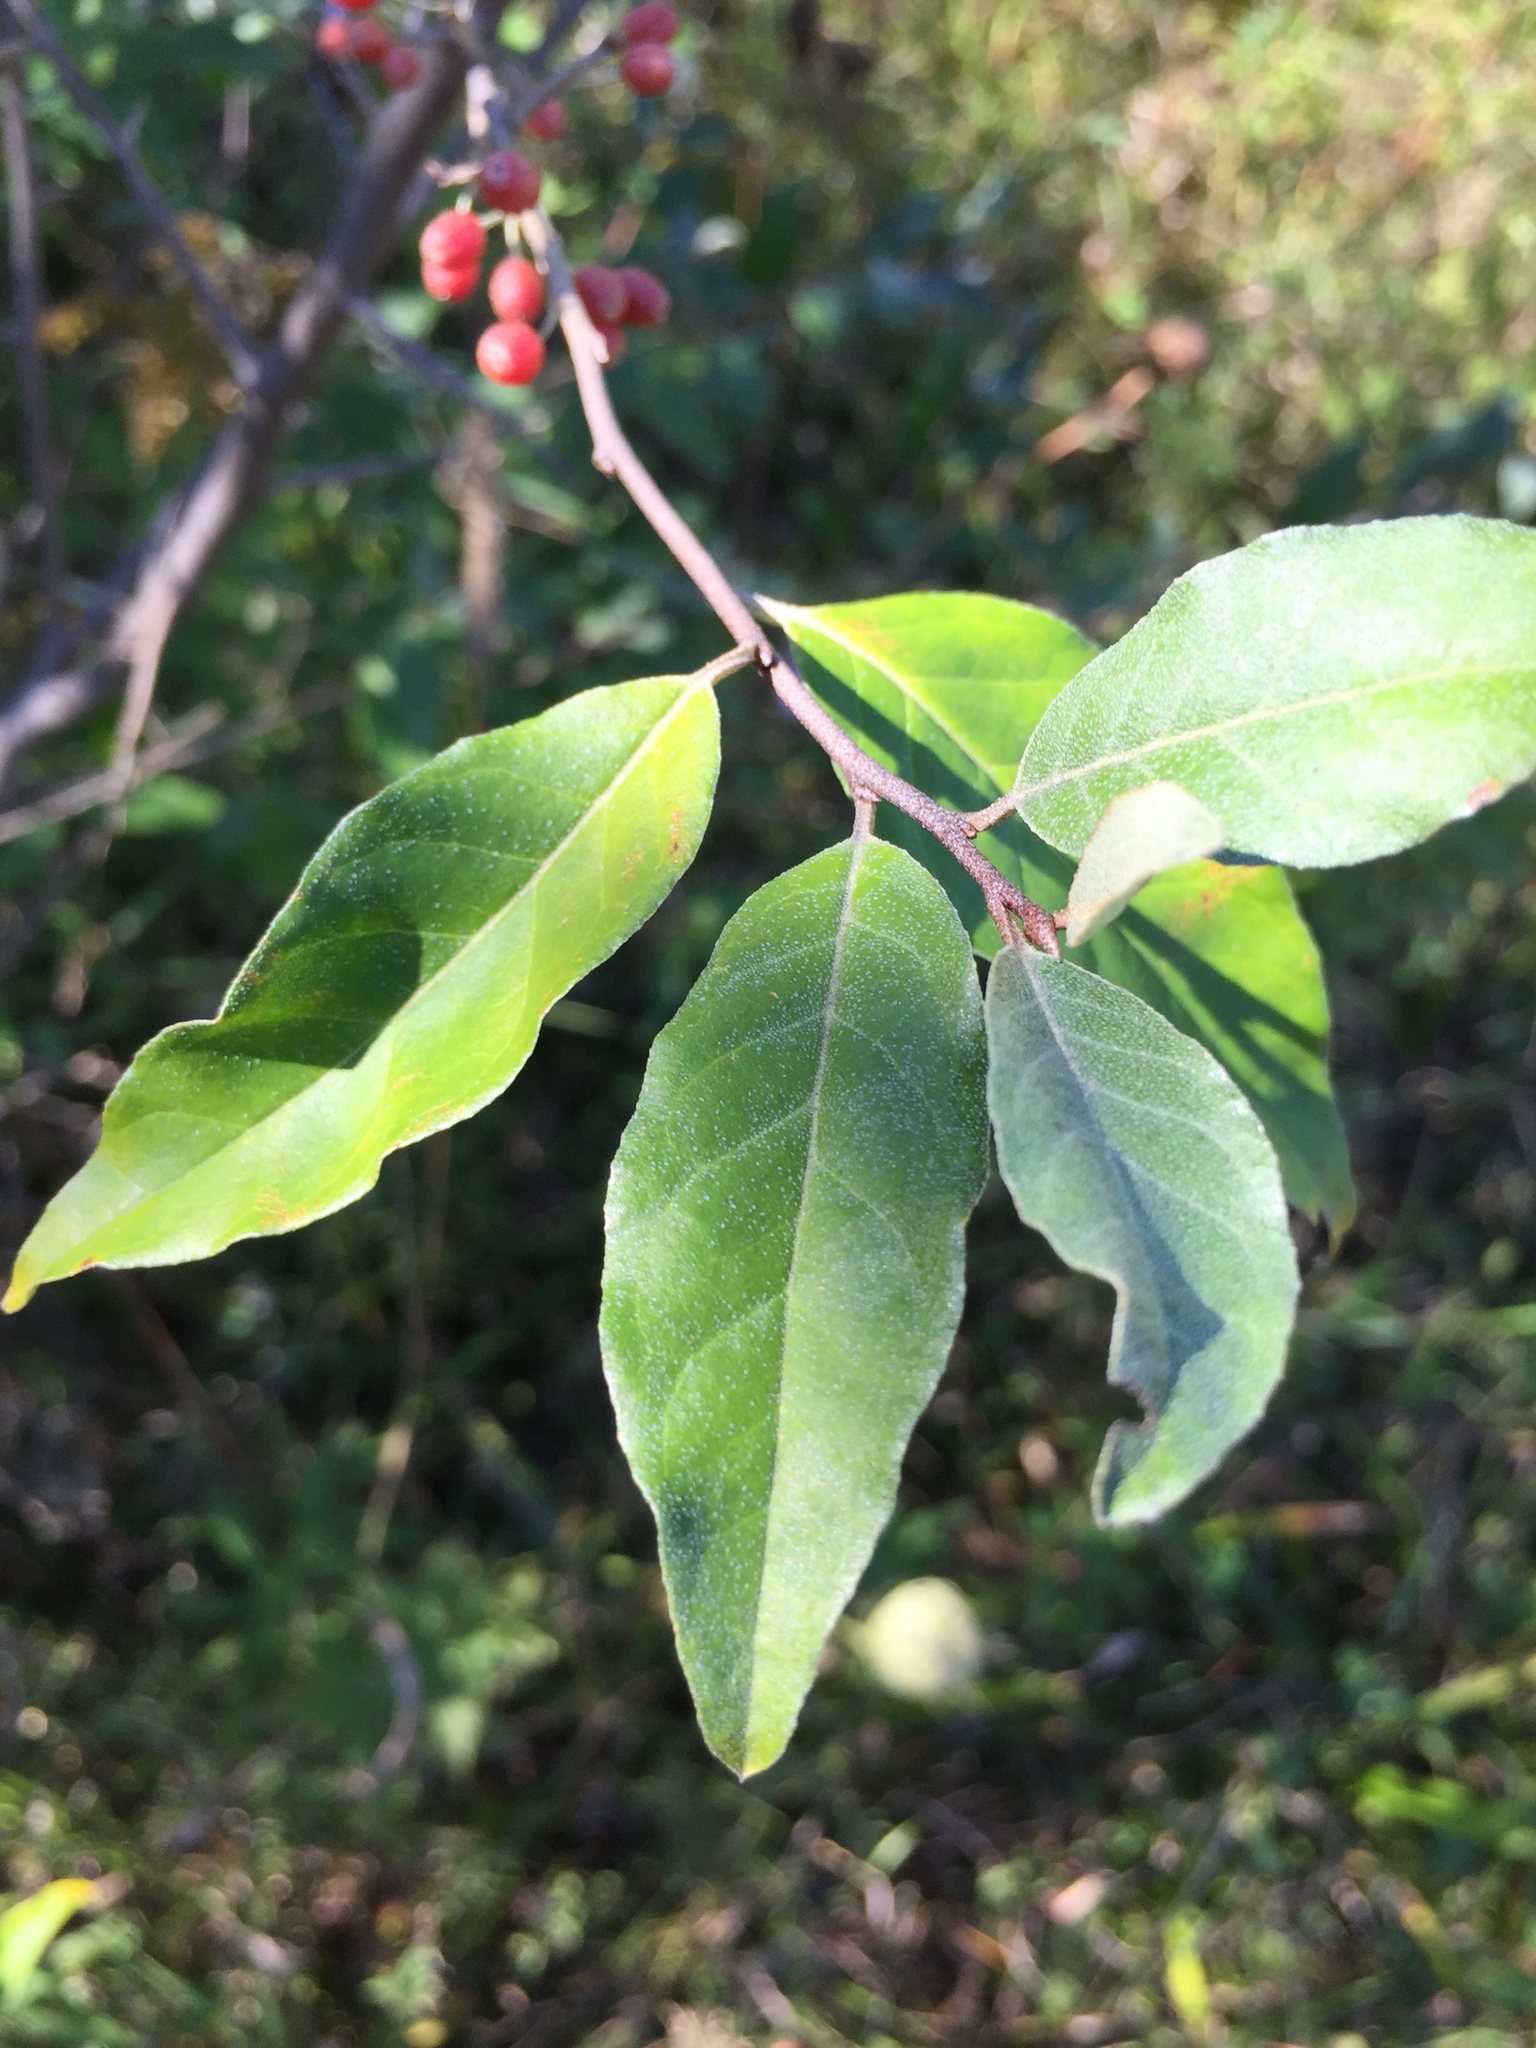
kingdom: Plantae
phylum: Tracheophyta
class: Magnoliopsida
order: Rosales
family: Elaeagnaceae
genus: Elaeagnus
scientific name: Elaeagnus umbellata
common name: Autumn olive
